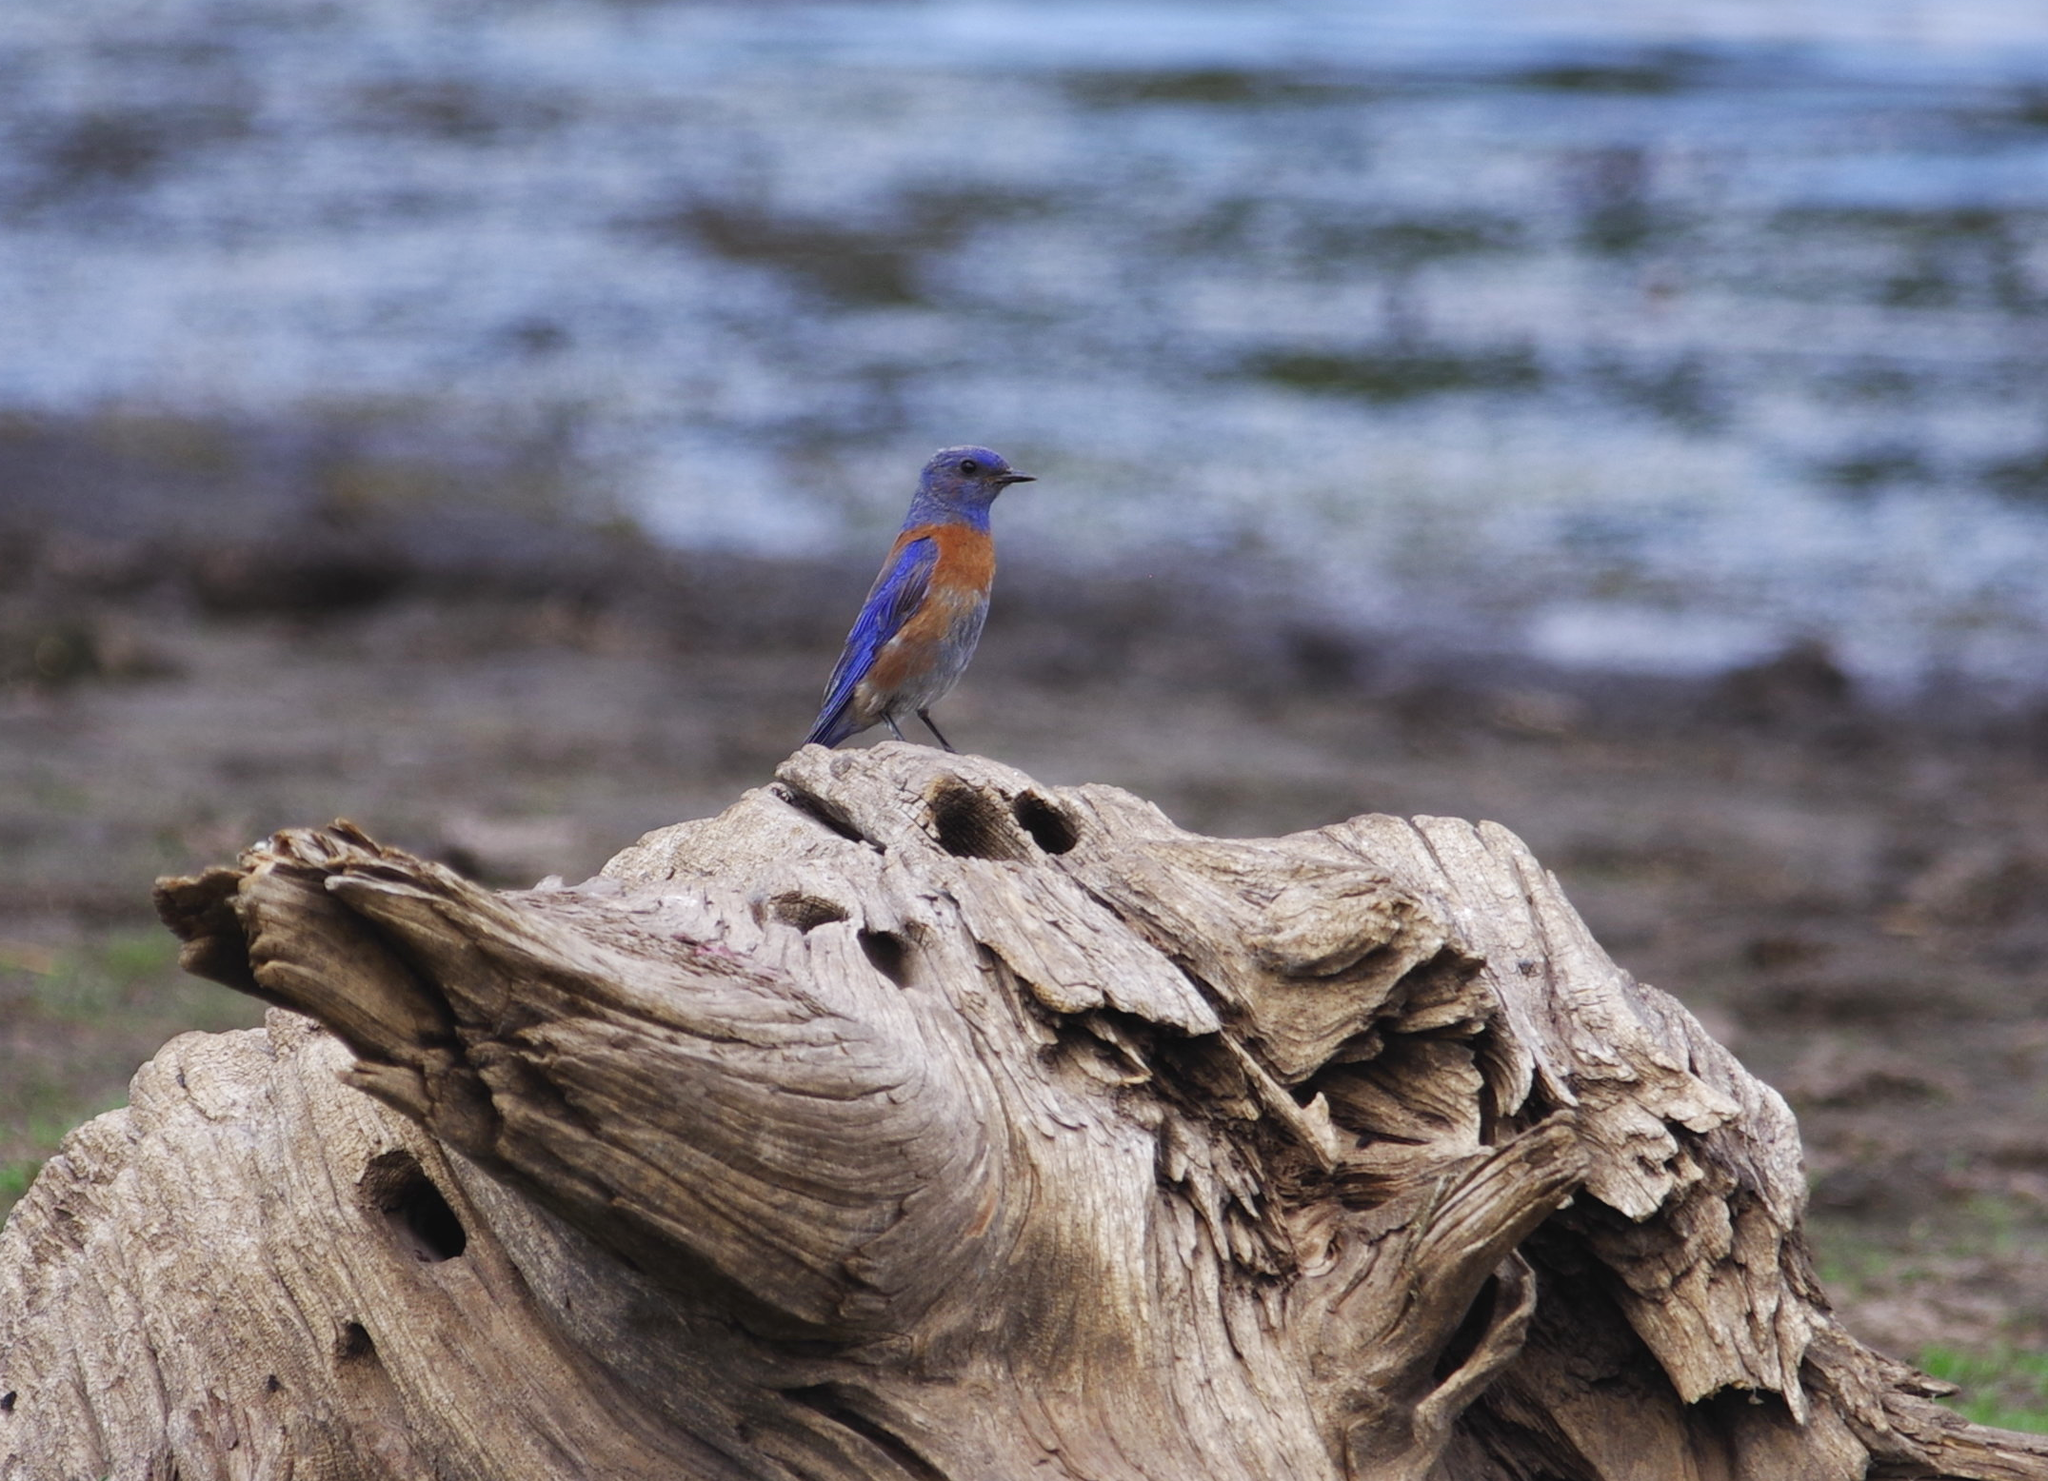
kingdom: Animalia
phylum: Chordata
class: Aves
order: Passeriformes
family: Turdidae
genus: Sialia
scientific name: Sialia mexicana
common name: Western bluebird
